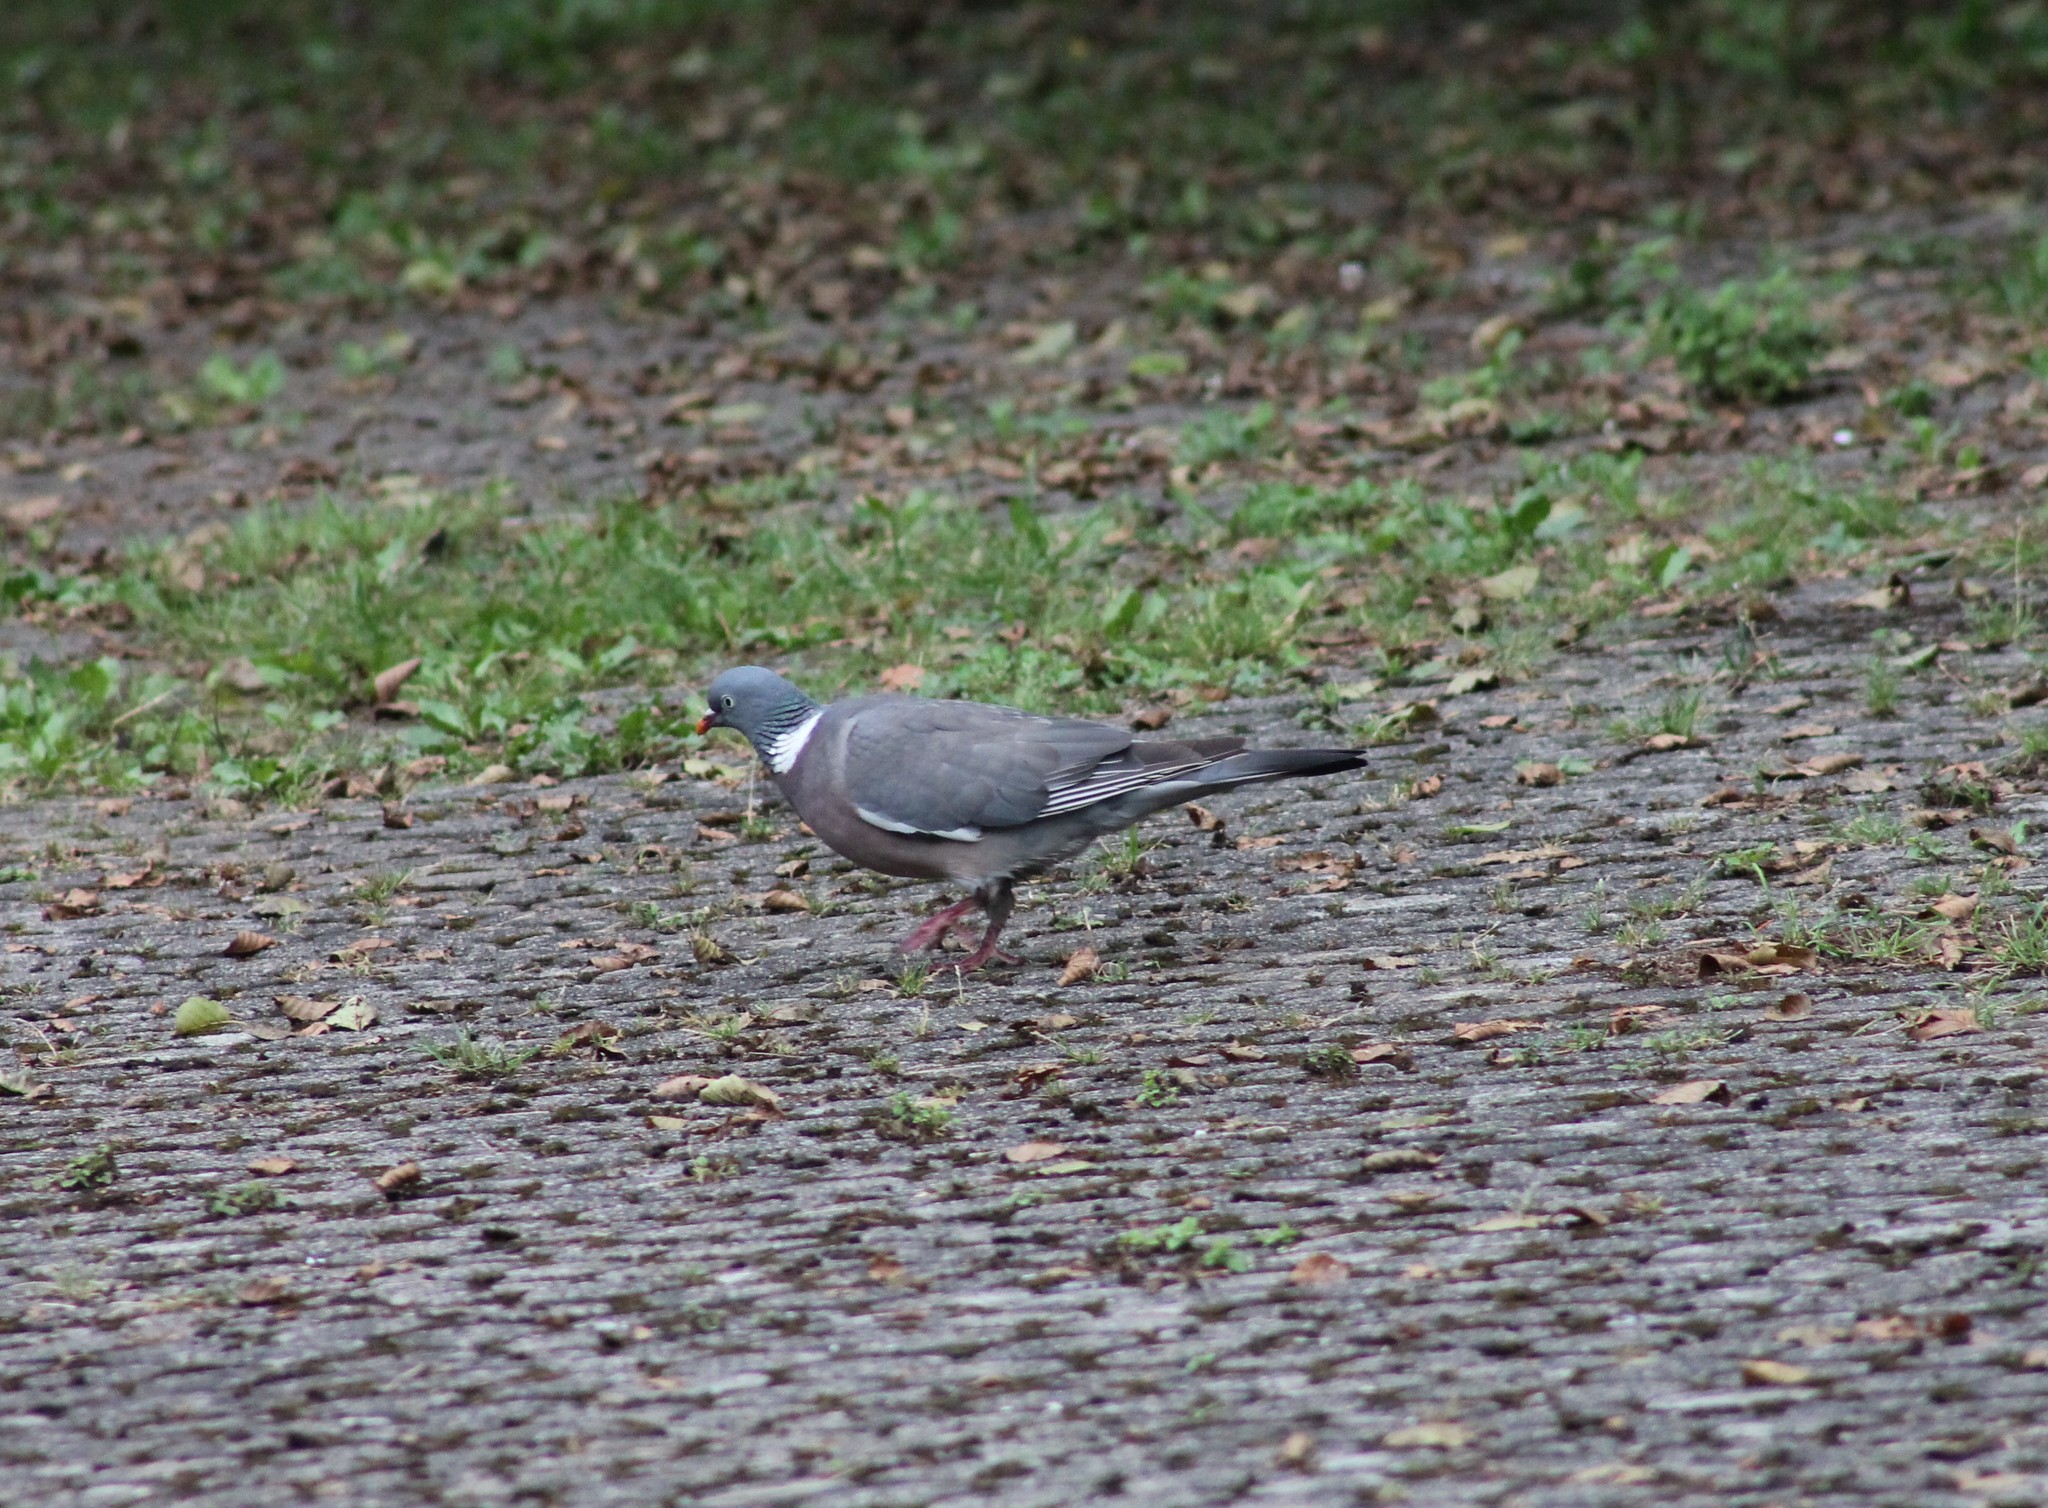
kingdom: Animalia
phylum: Chordata
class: Aves
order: Columbiformes
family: Columbidae
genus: Columba
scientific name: Columba palumbus
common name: Common wood pigeon
